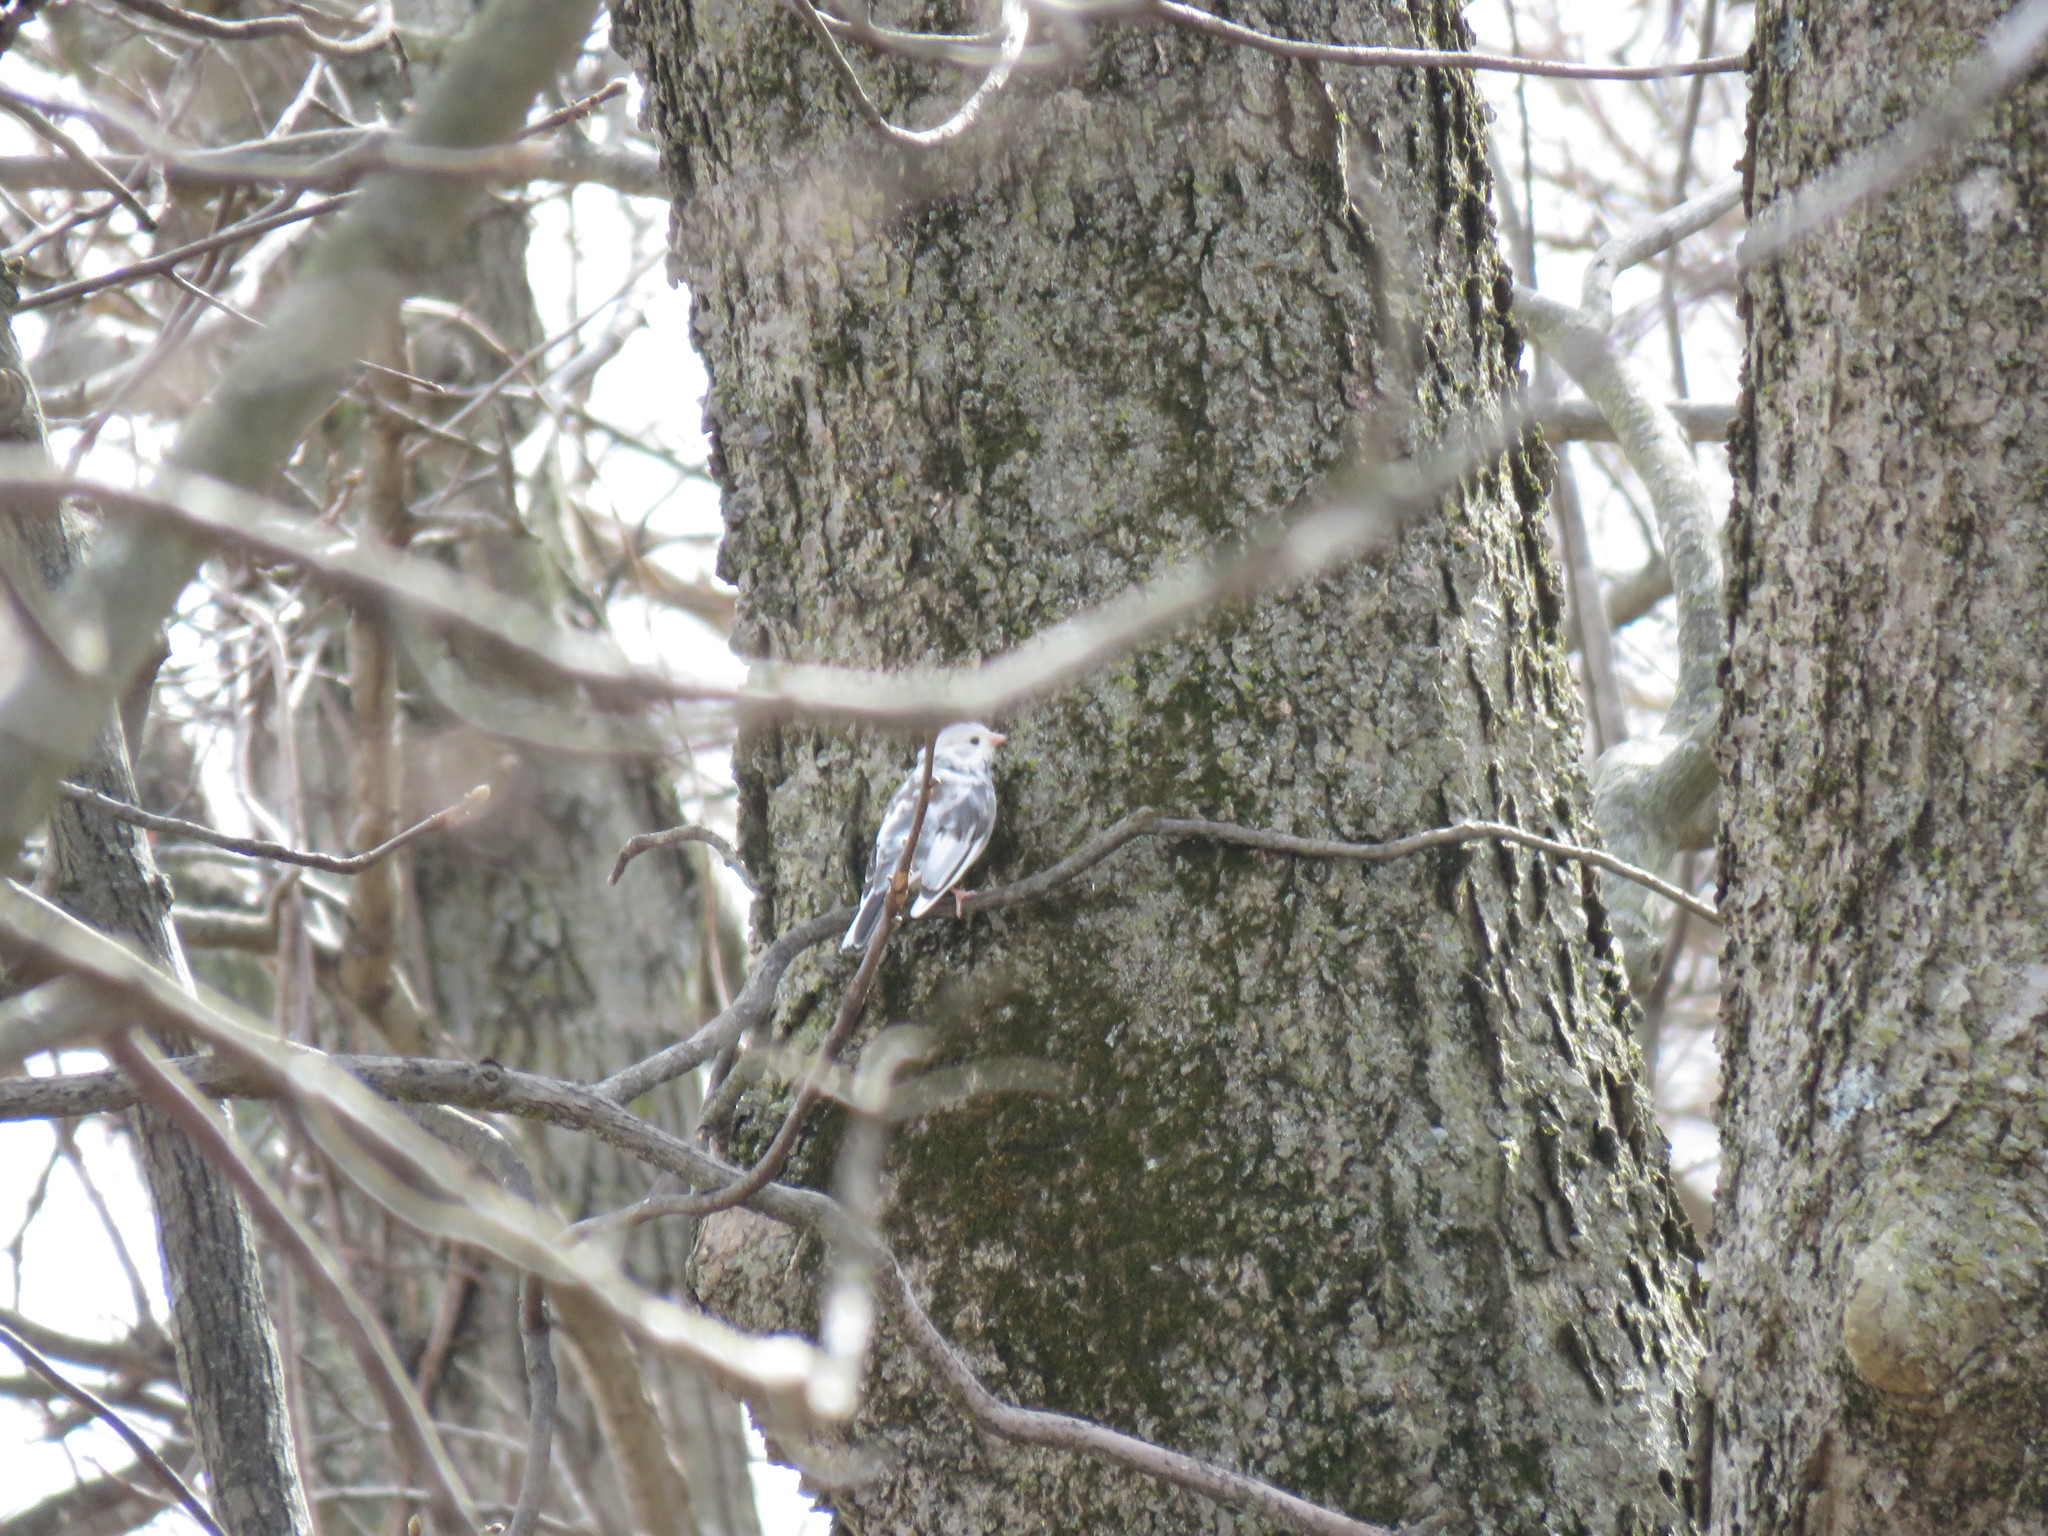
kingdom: Animalia
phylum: Chordata
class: Aves
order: Passeriformes
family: Passerellidae
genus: Junco
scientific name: Junco hyemalis
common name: Dark-eyed junco
